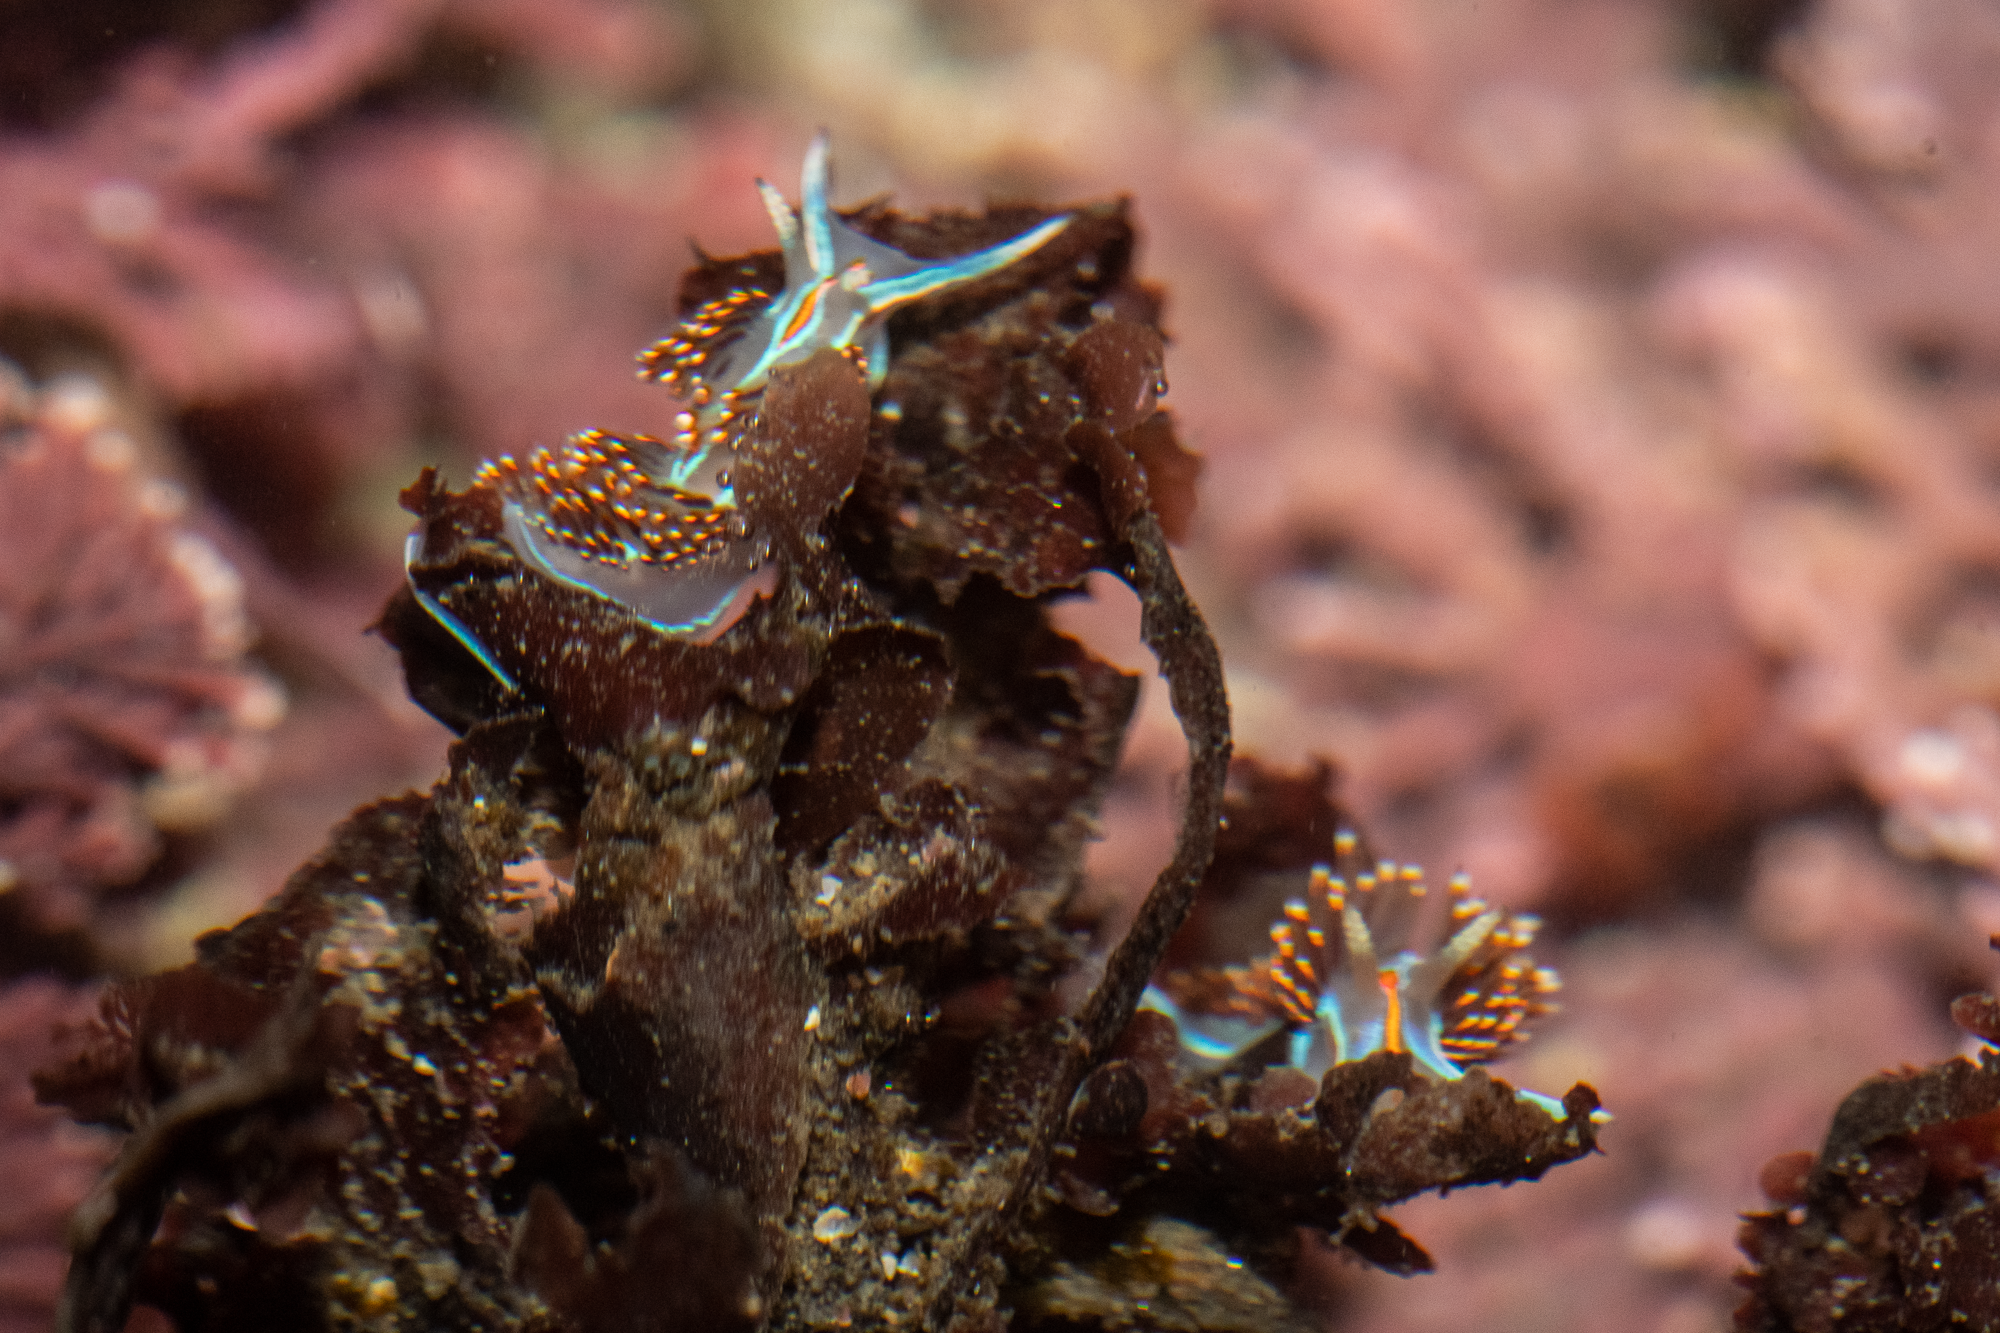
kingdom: Animalia
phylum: Mollusca
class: Gastropoda
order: Nudibranchia
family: Myrrhinidae
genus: Hermissenda
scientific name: Hermissenda opalescens
